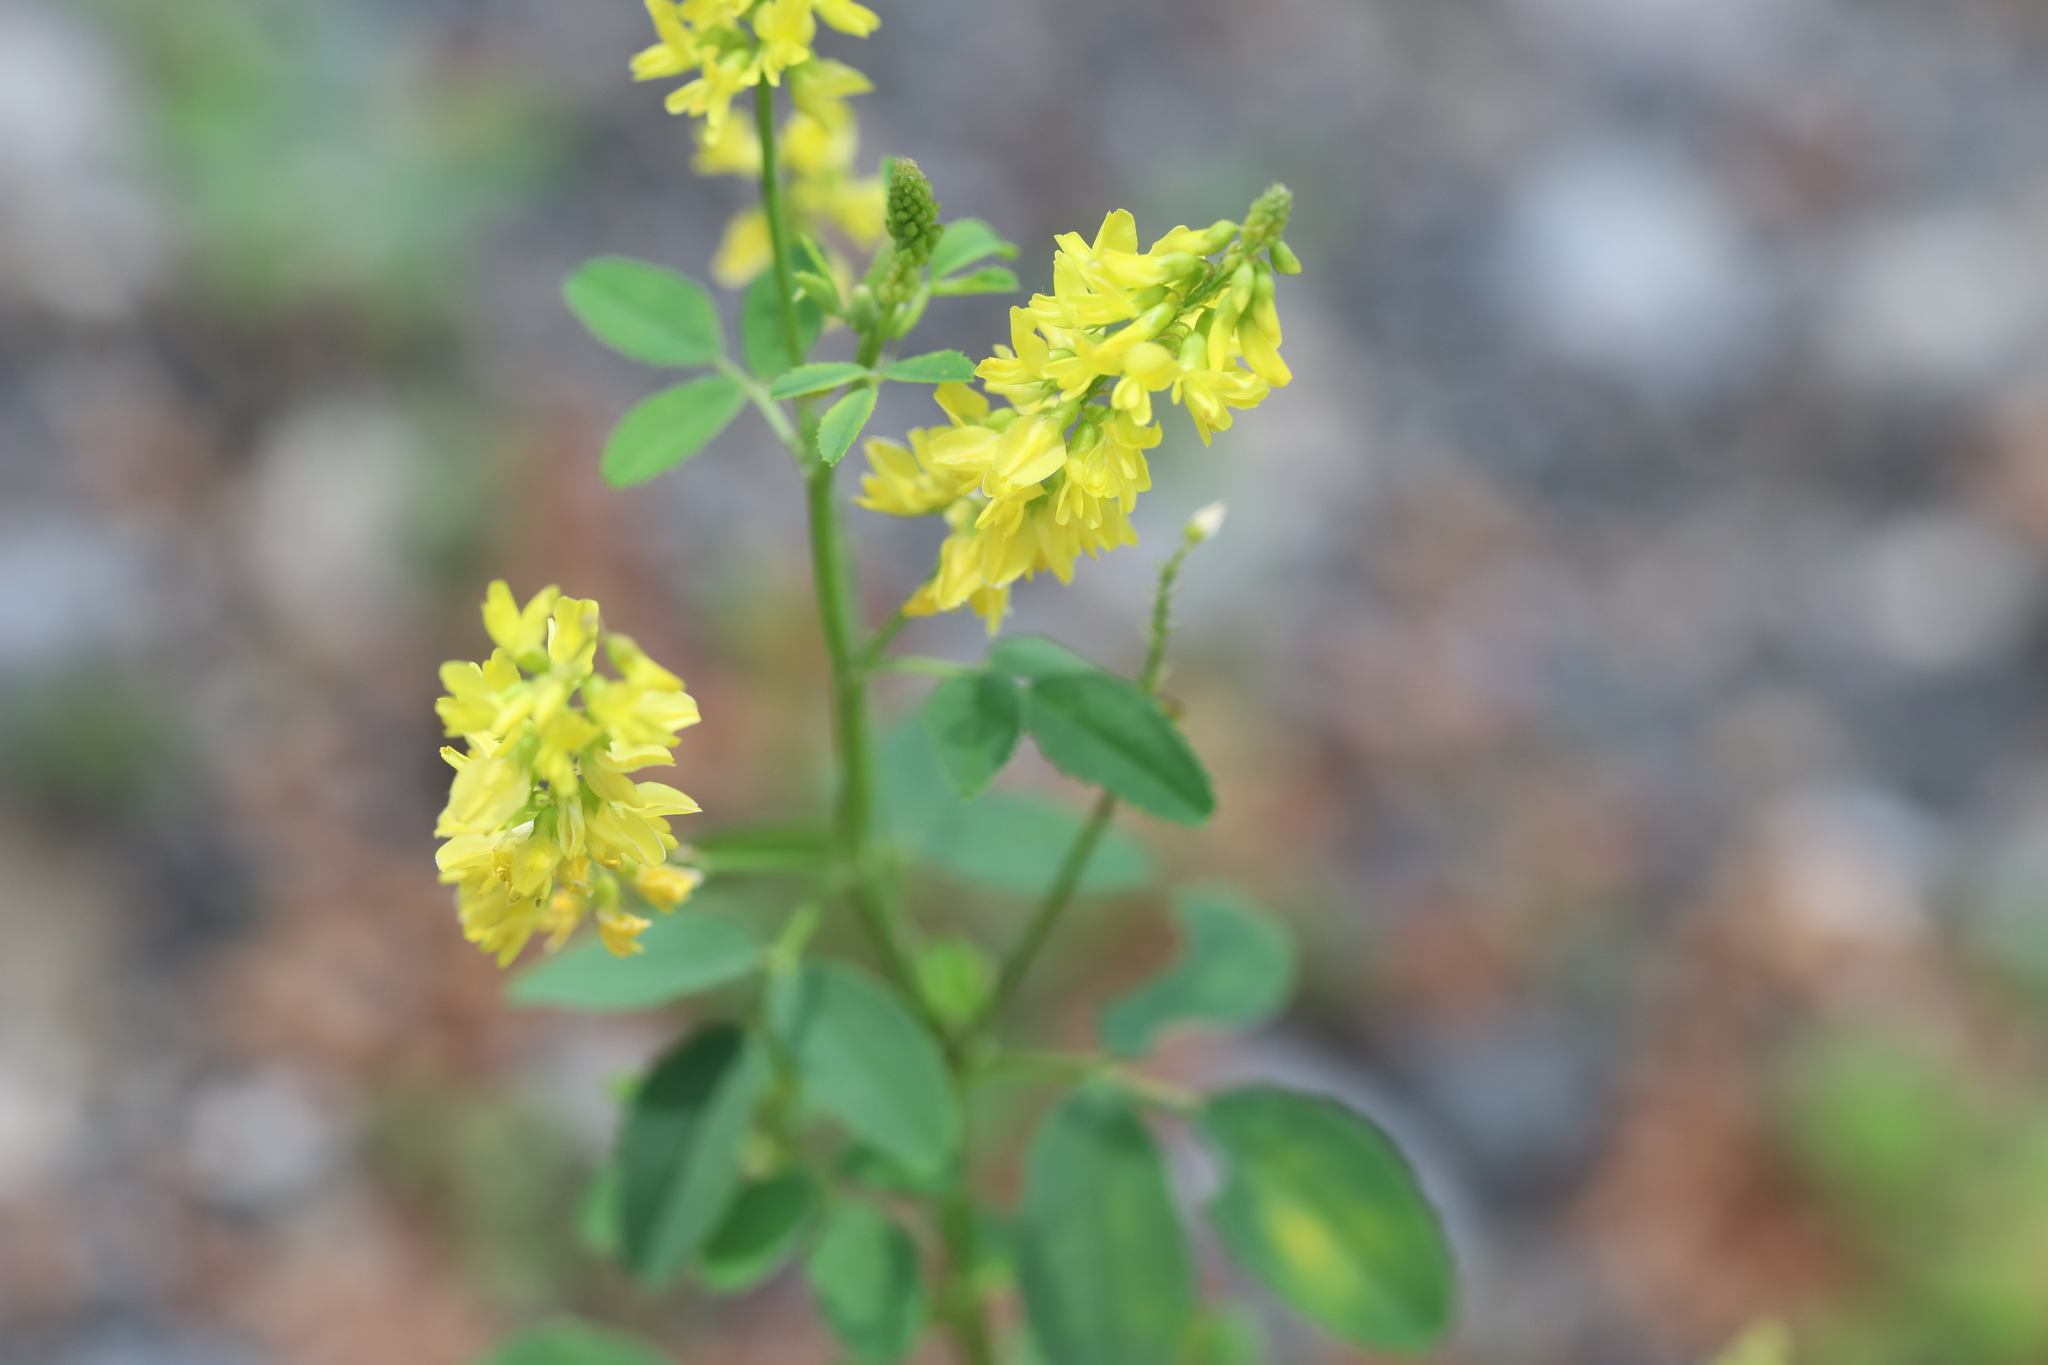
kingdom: Plantae
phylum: Tracheophyta
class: Magnoliopsida
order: Fabales
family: Fabaceae
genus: Melilotus
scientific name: Melilotus officinalis
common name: Sweetclover
